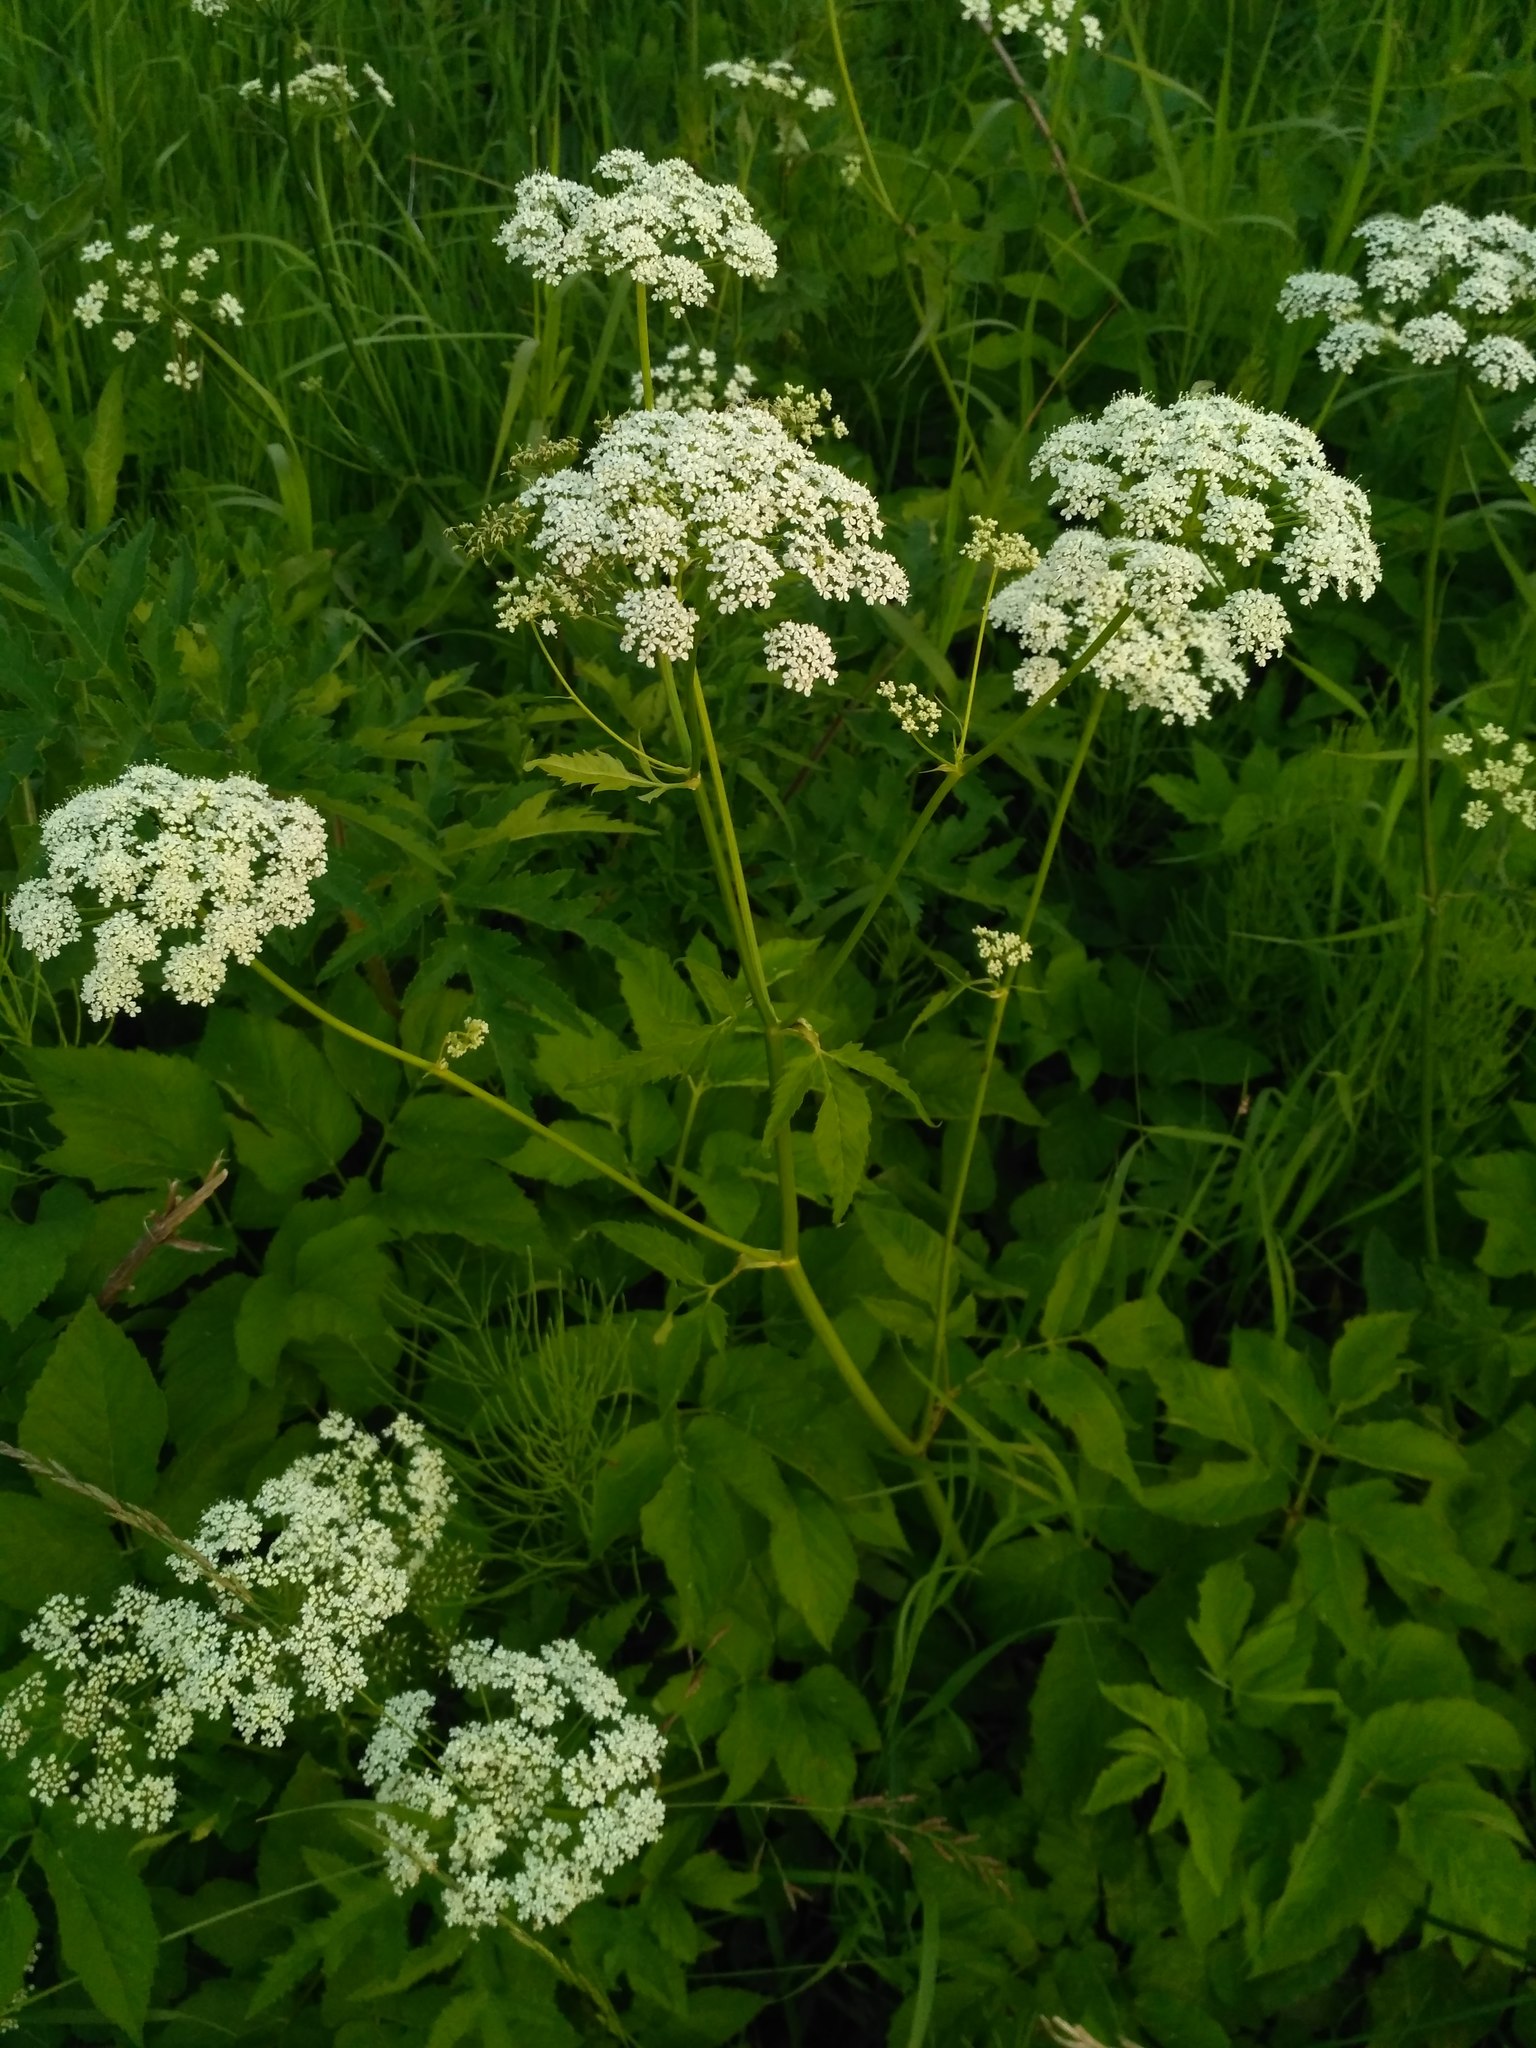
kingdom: Plantae
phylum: Tracheophyta
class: Magnoliopsida
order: Apiales
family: Apiaceae
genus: Aegopodium
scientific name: Aegopodium podagraria
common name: Ground-elder
